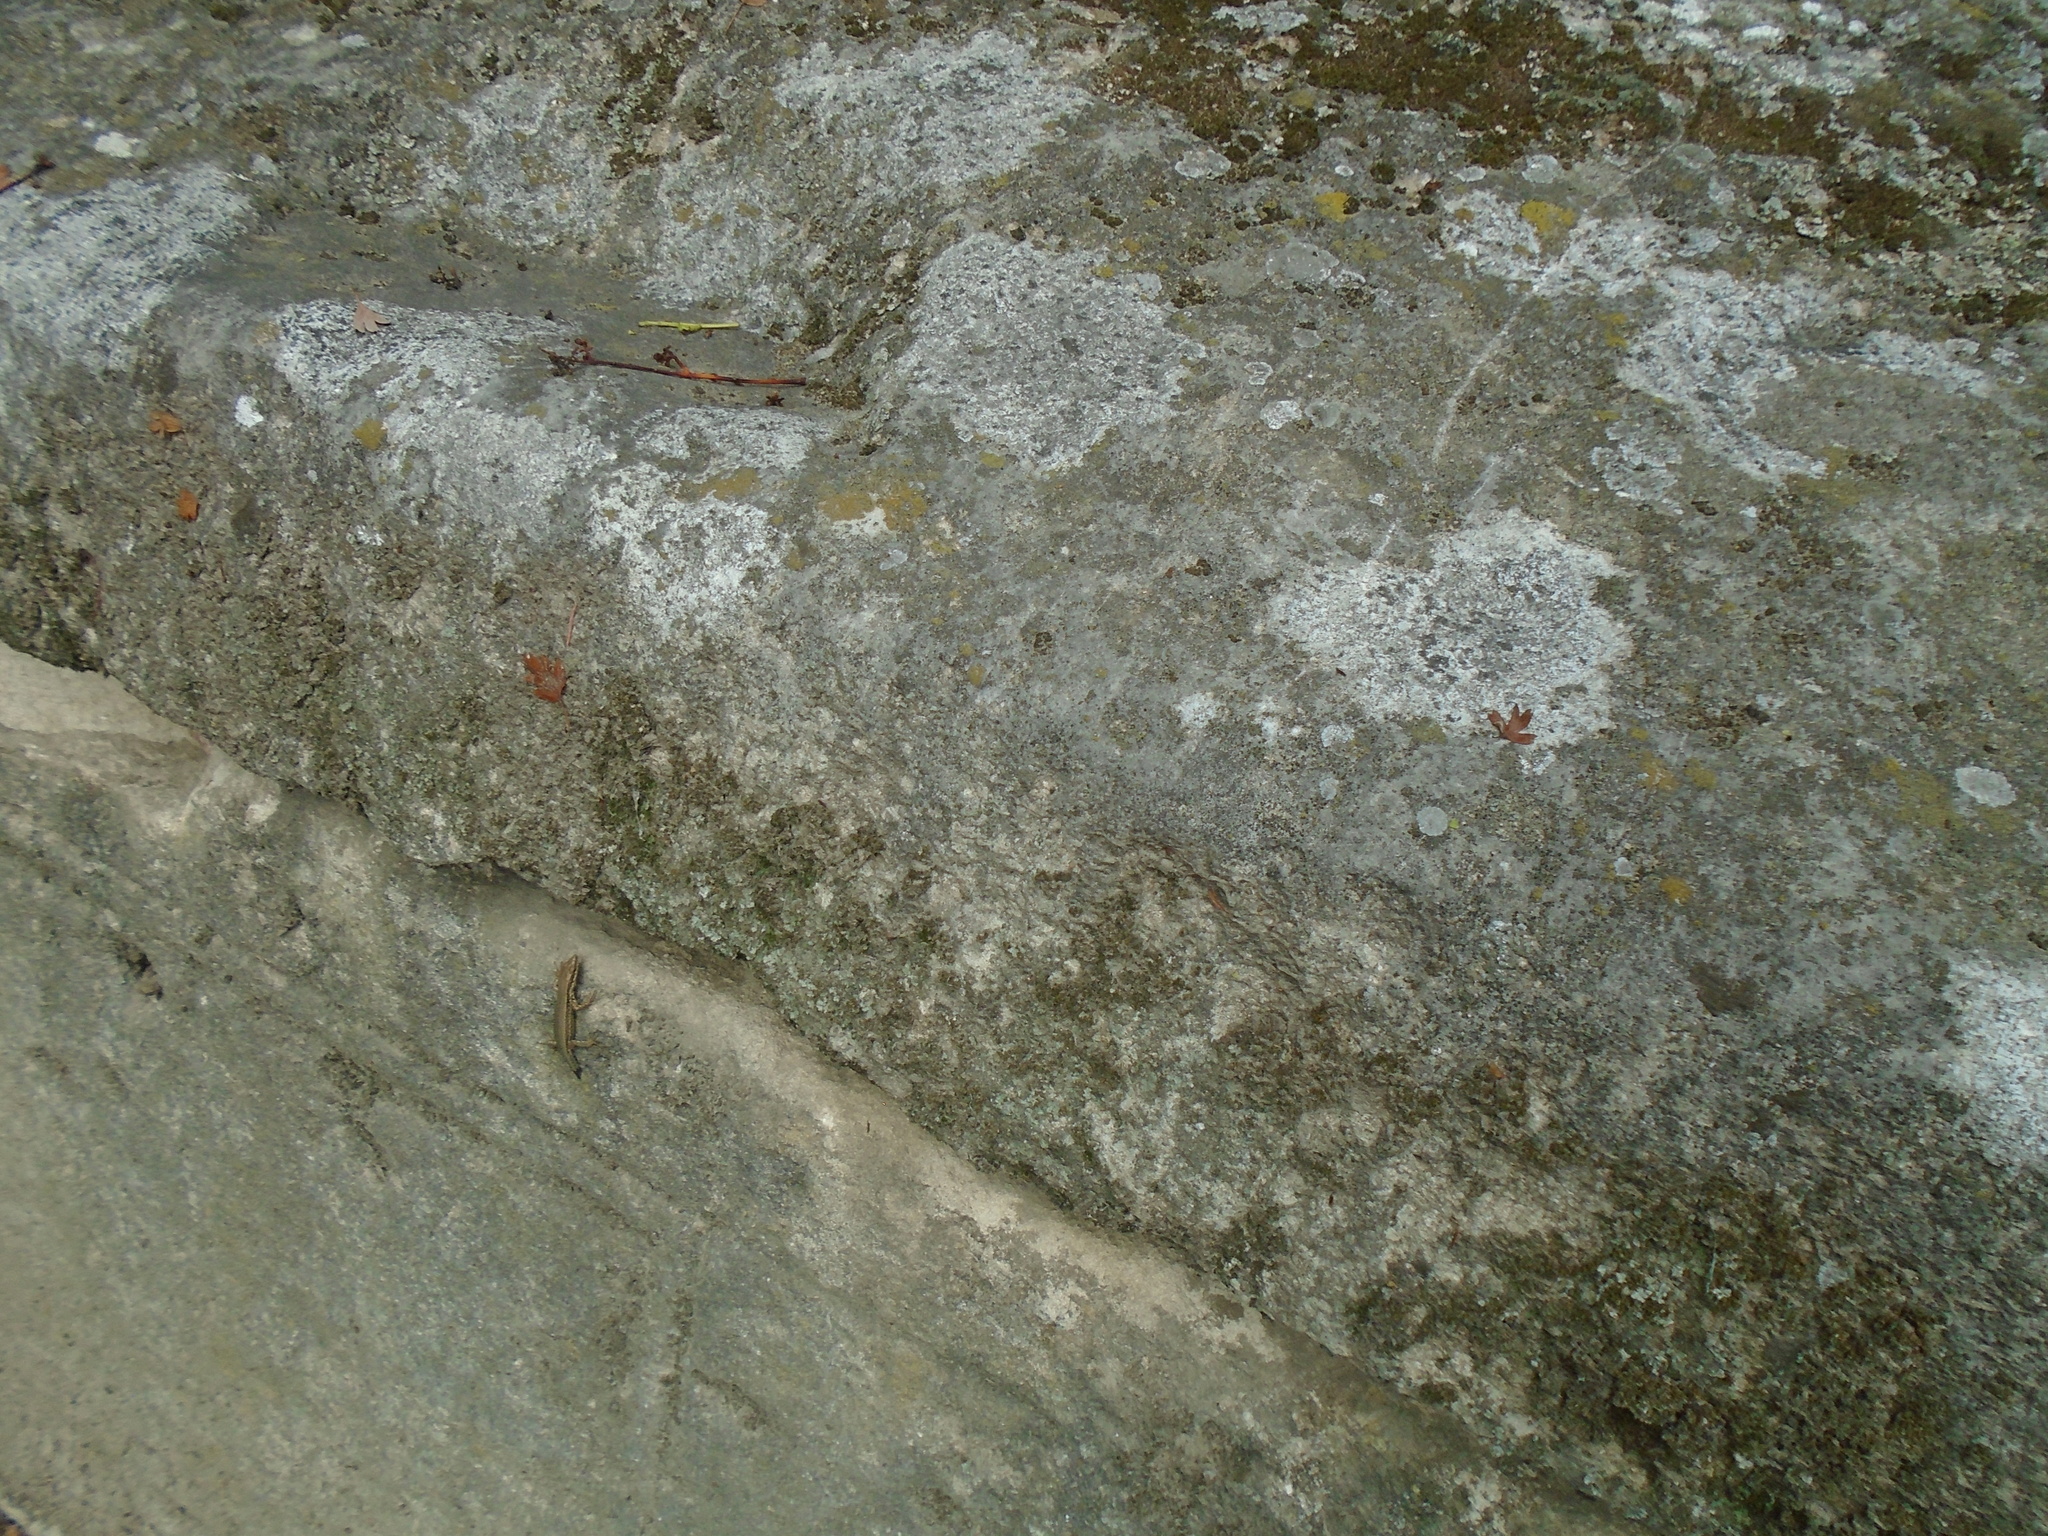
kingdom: Animalia
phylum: Chordata
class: Squamata
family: Lacertidae
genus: Podarcis
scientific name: Podarcis muralis
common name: Common wall lizard
